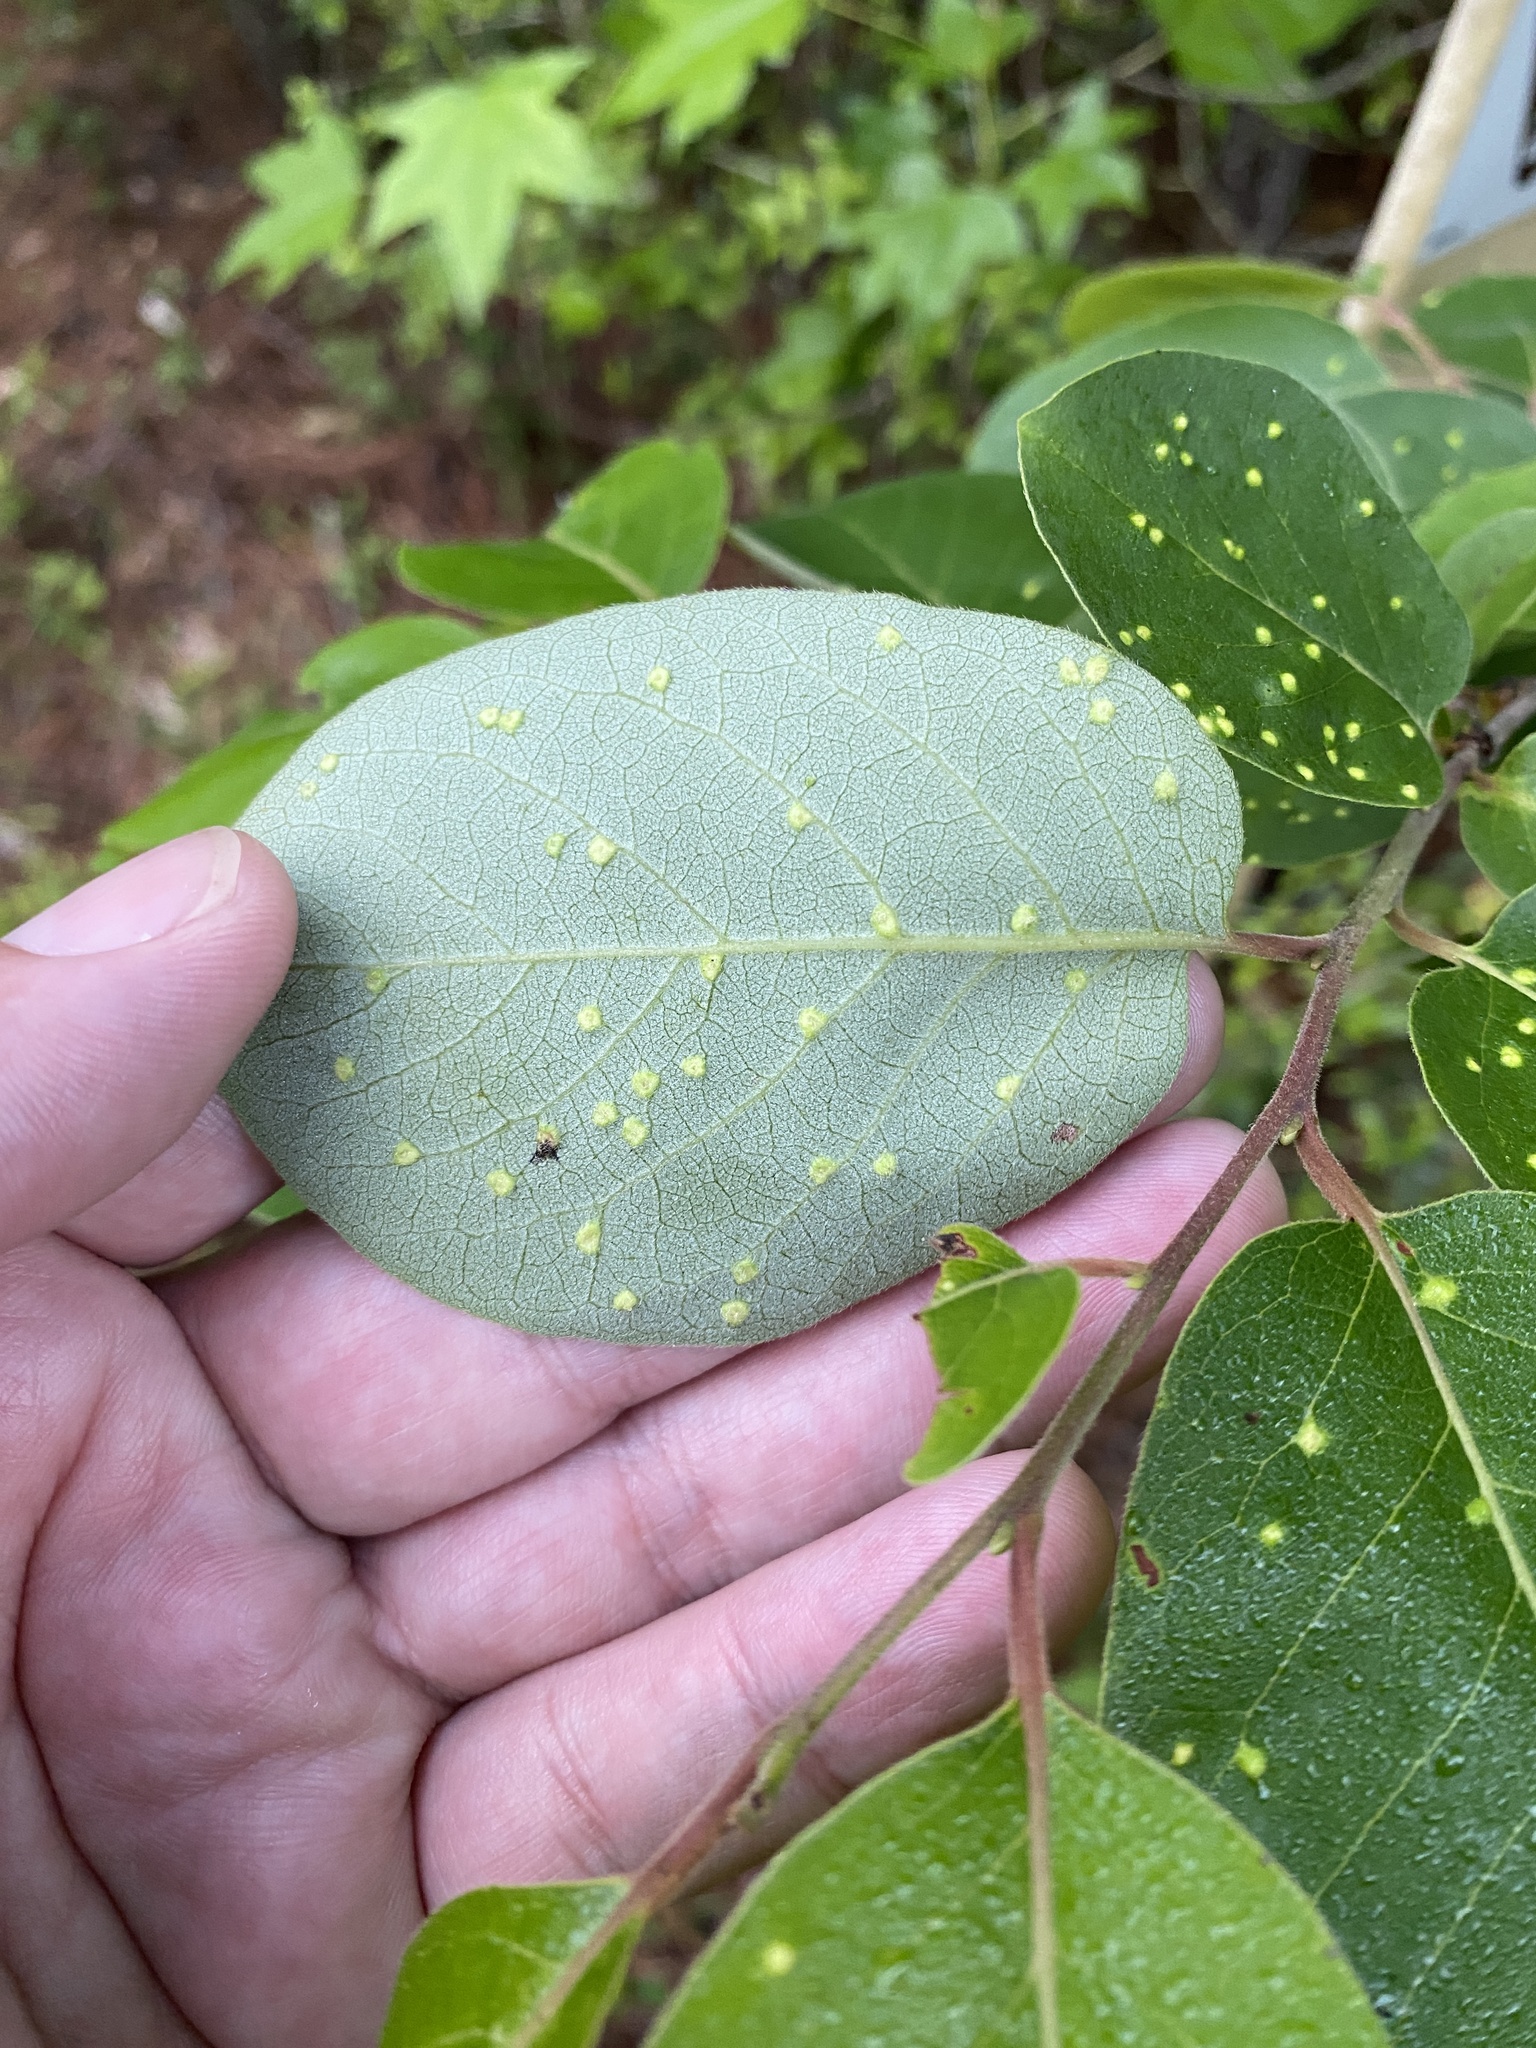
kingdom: Animalia
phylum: Arthropoda
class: Arachnida
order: Trombidiformes
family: Eriophyidae
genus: Aceria
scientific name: Aceria
